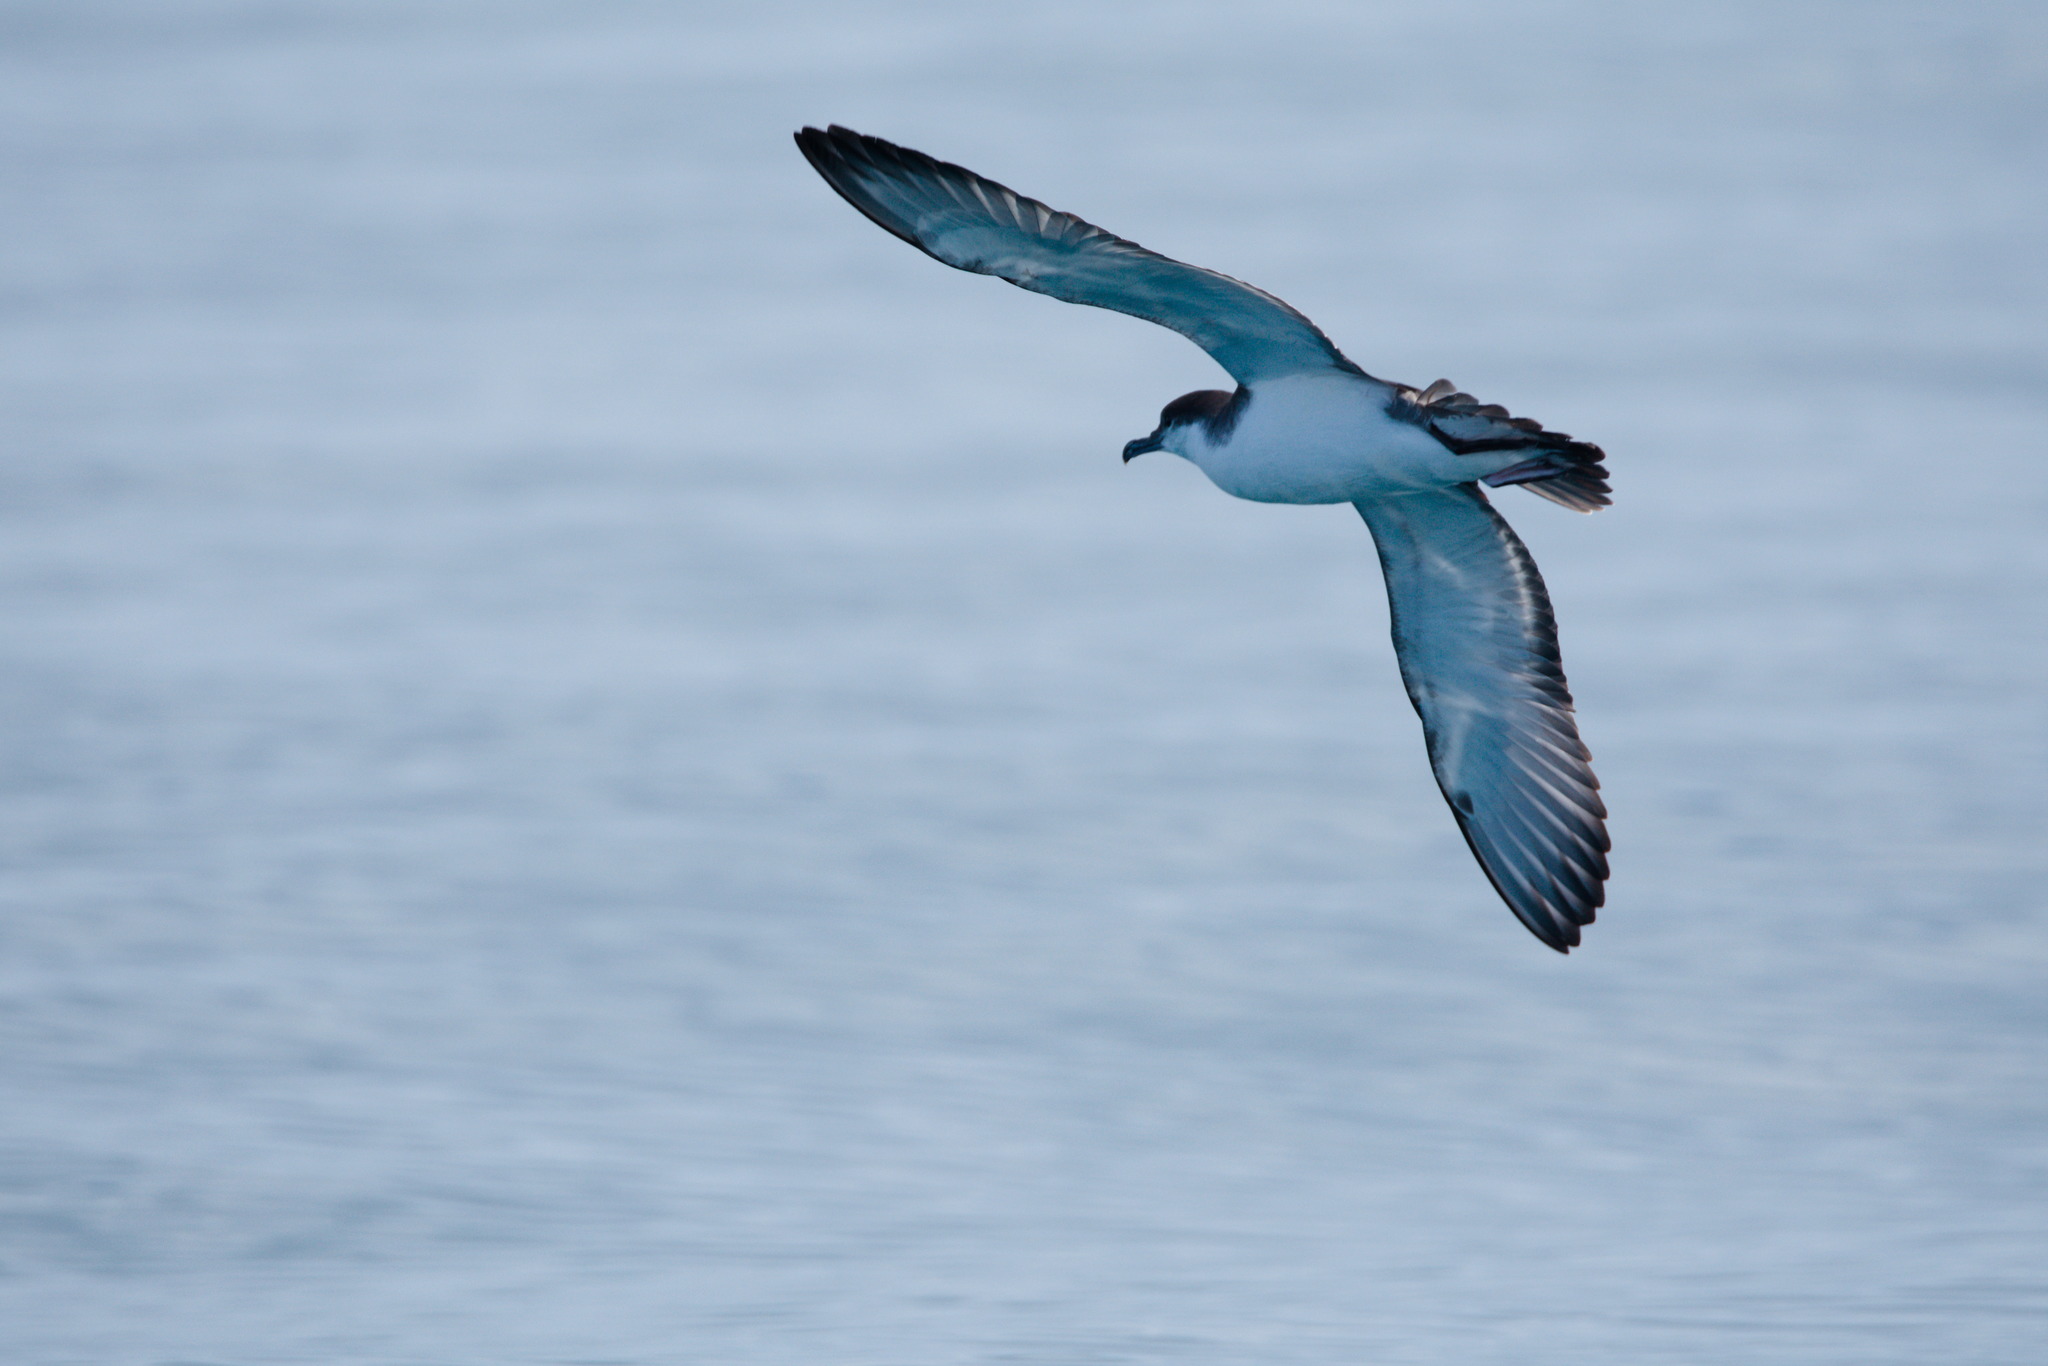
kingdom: Animalia
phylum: Chordata
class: Aves
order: Procellariiformes
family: Procellariidae
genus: Puffinus
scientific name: Puffinus bulleri
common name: Buller's shearwater
